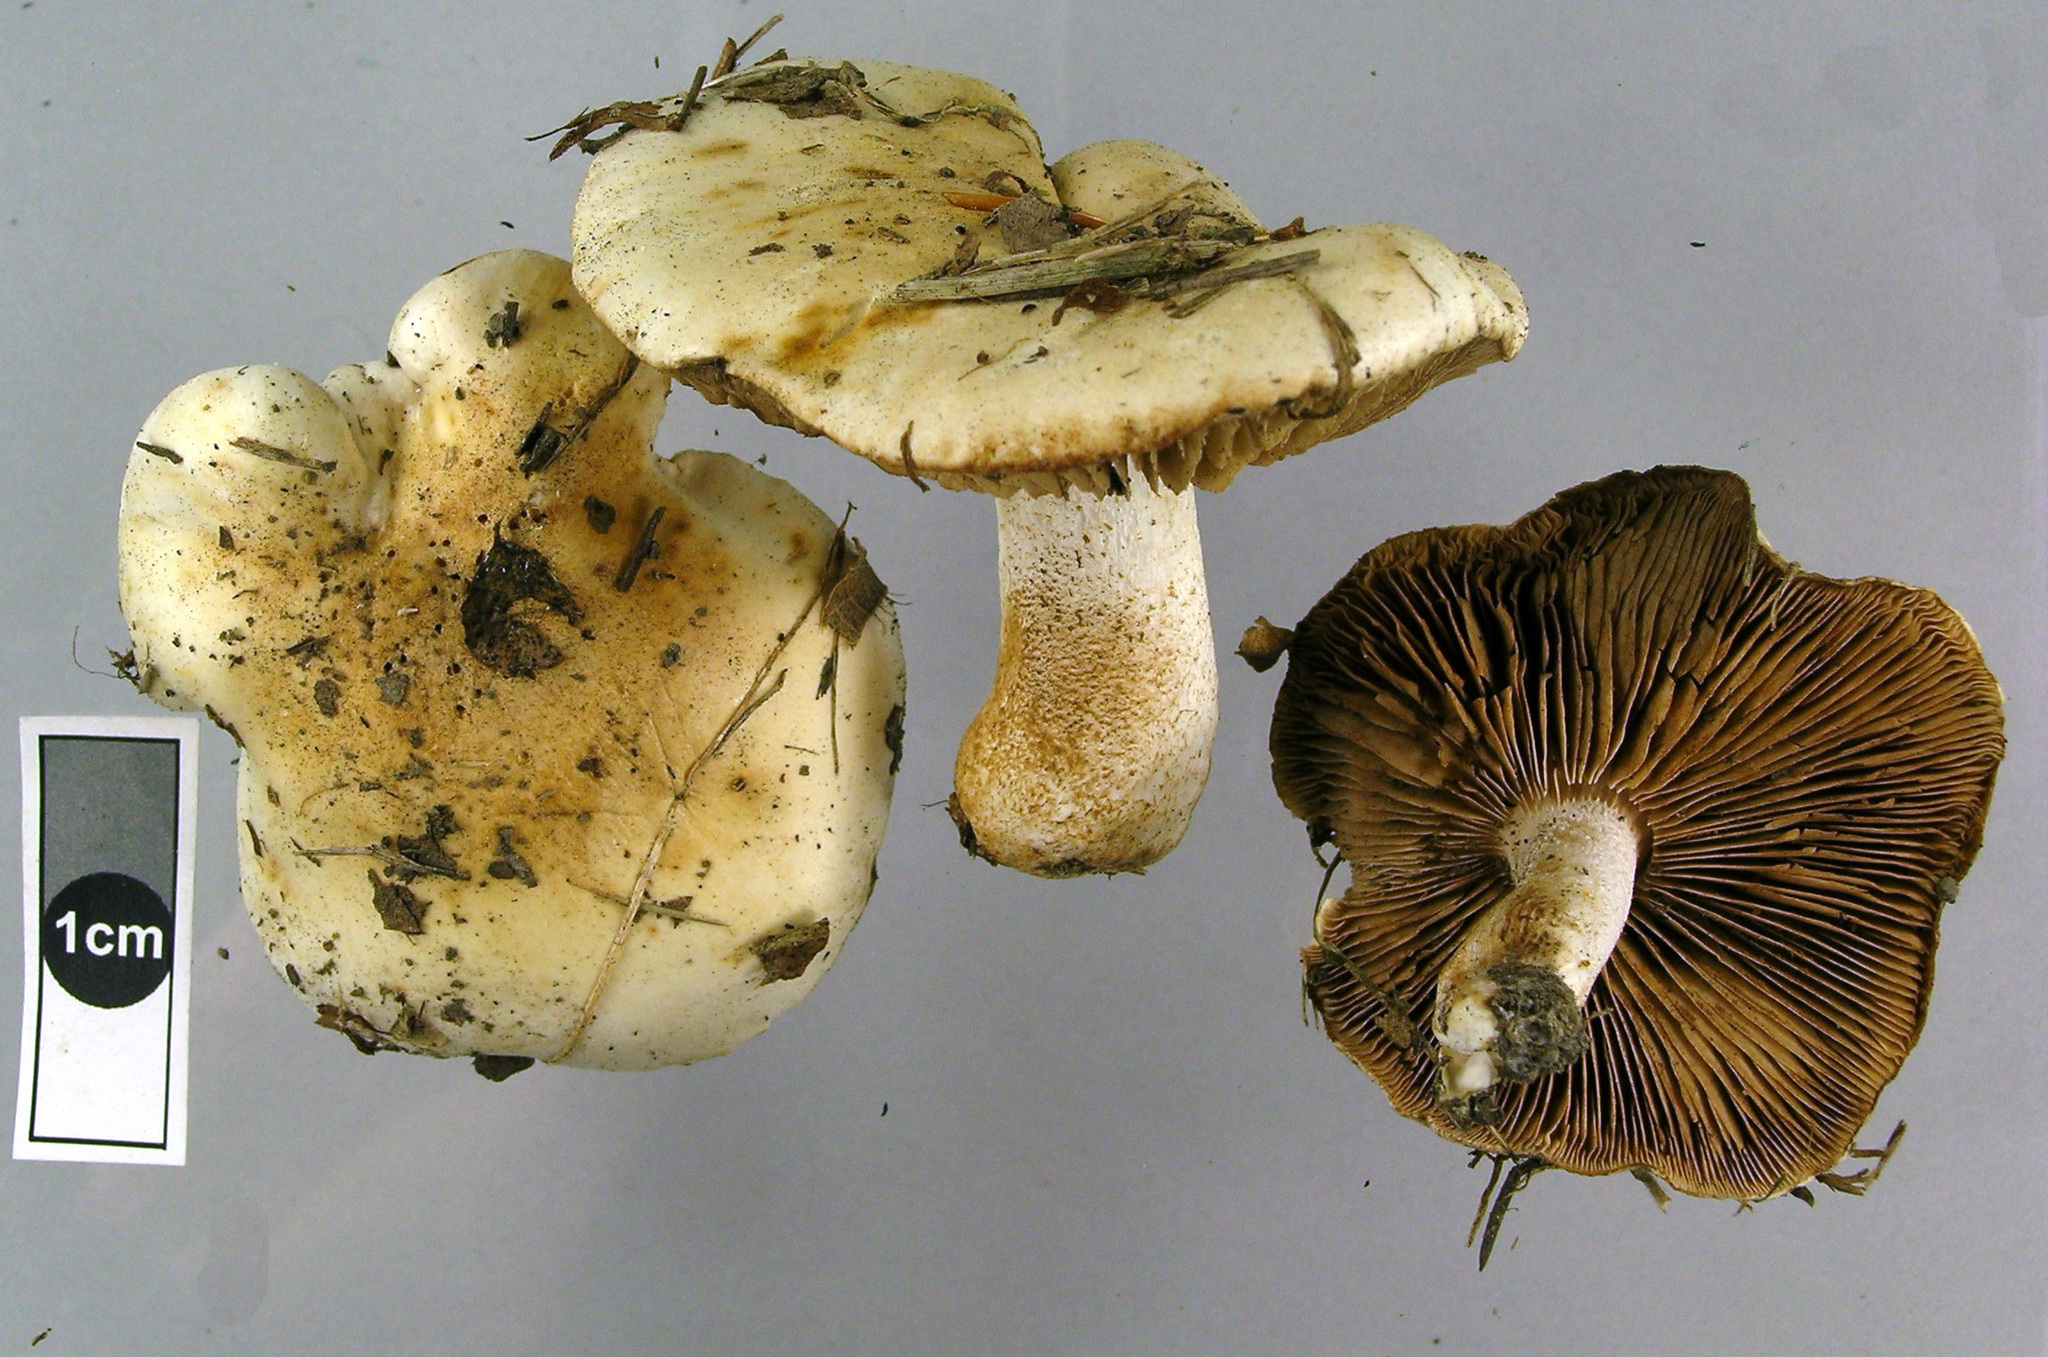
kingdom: Fungi
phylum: Basidiomycota
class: Agaricomycetes
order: Agaricales
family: Hymenogastraceae
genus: Hebeloma
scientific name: Hebeloma crustuliniforme
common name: Poison pie
